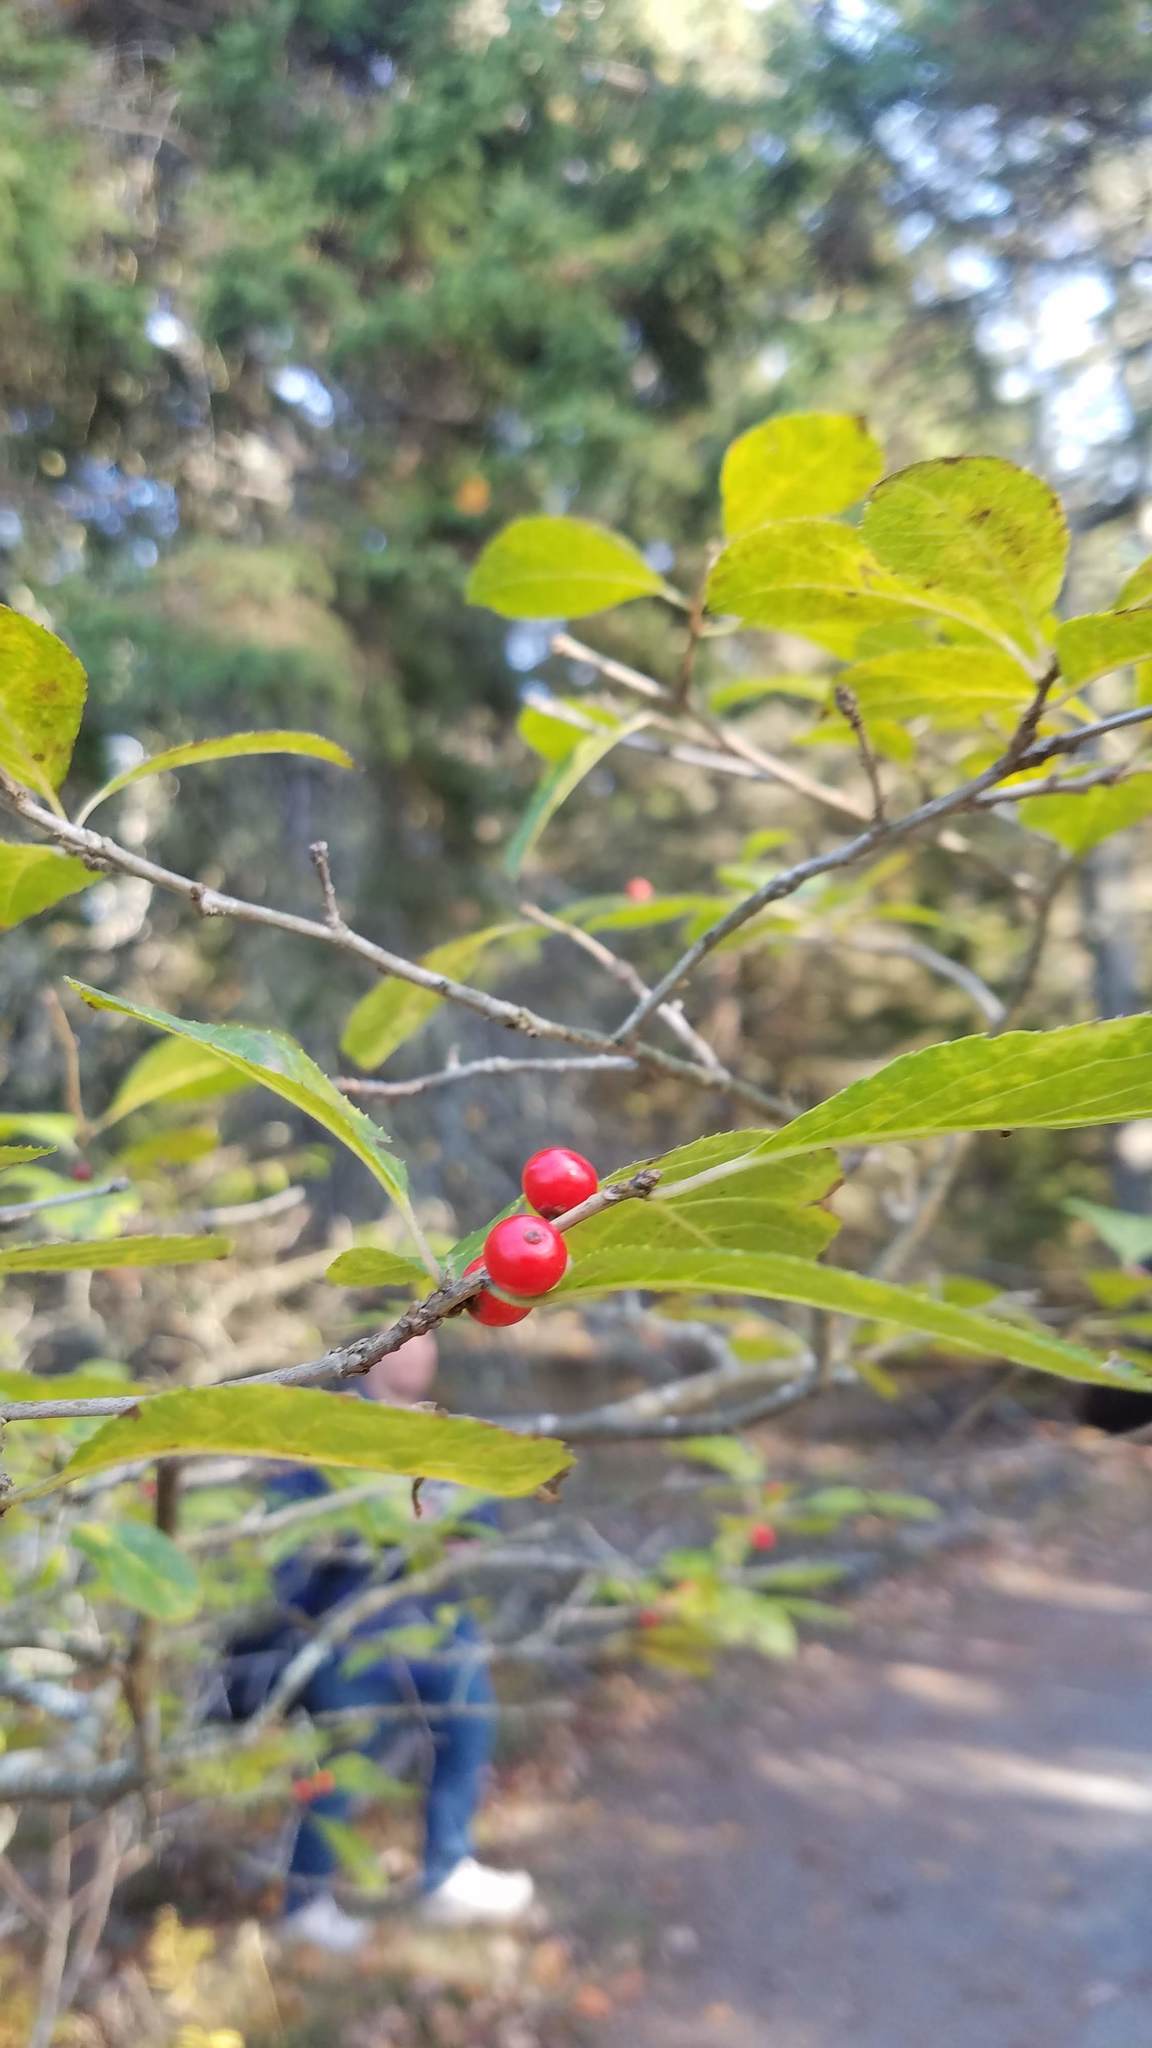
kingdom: Plantae
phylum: Tracheophyta
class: Magnoliopsida
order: Aquifoliales
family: Aquifoliaceae
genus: Ilex
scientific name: Ilex verticillata
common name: Virginia winterberry
